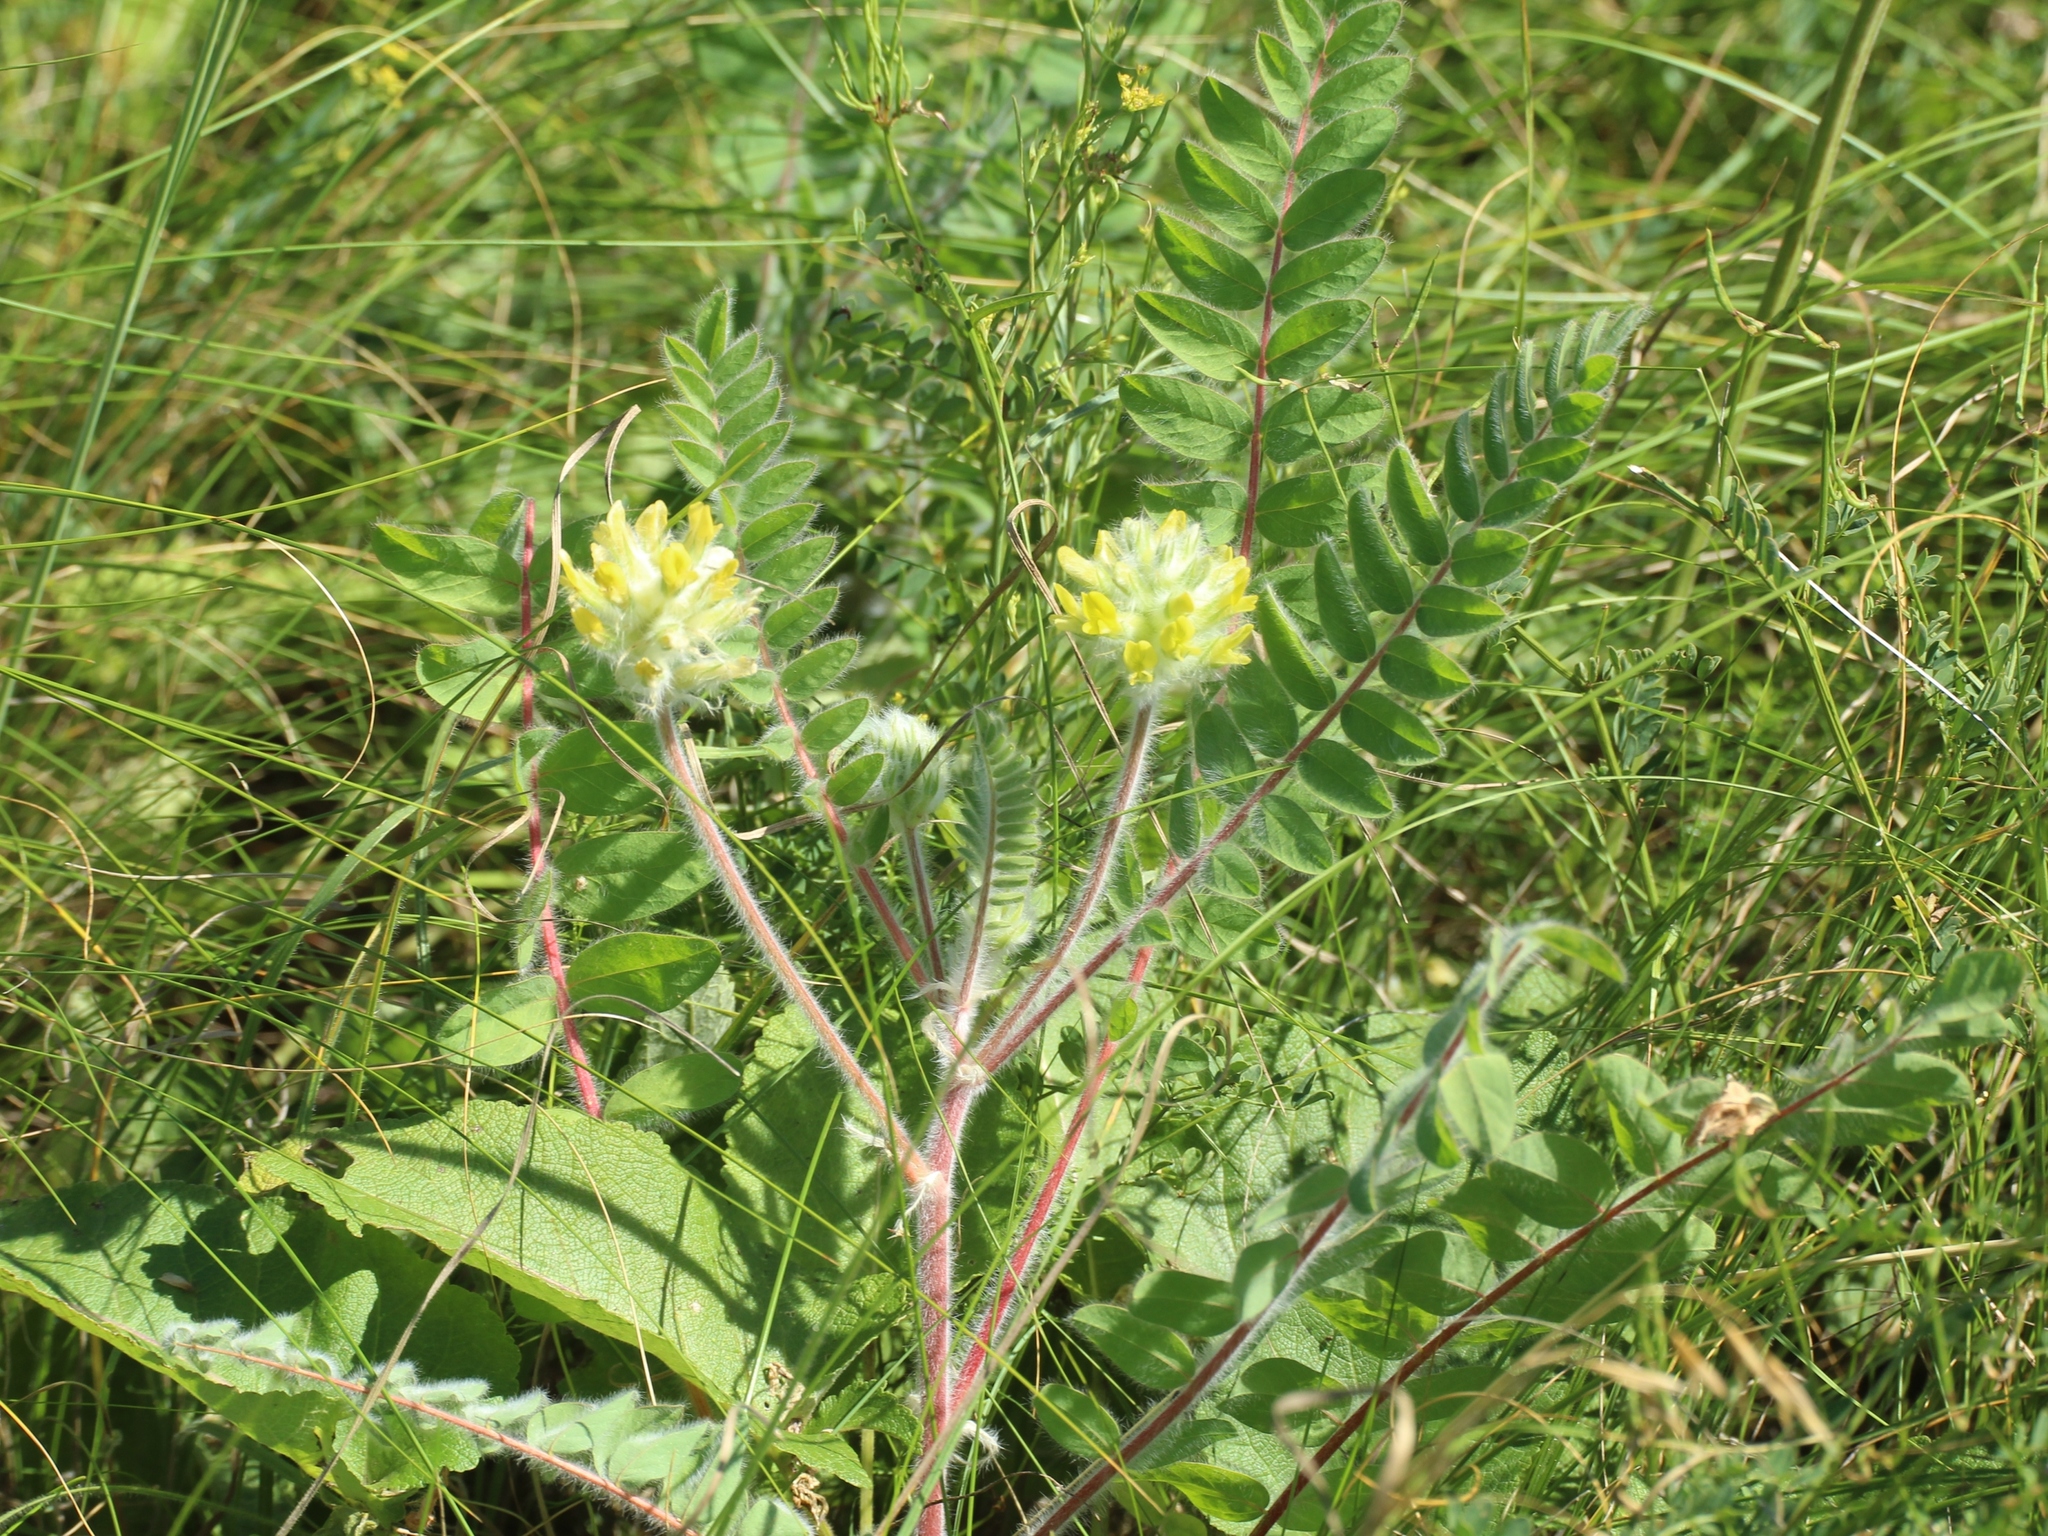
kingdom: Plantae
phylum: Tracheophyta
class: Magnoliopsida
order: Fabales
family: Fabaceae
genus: Astragalus
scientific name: Astragalus dasyanthus
